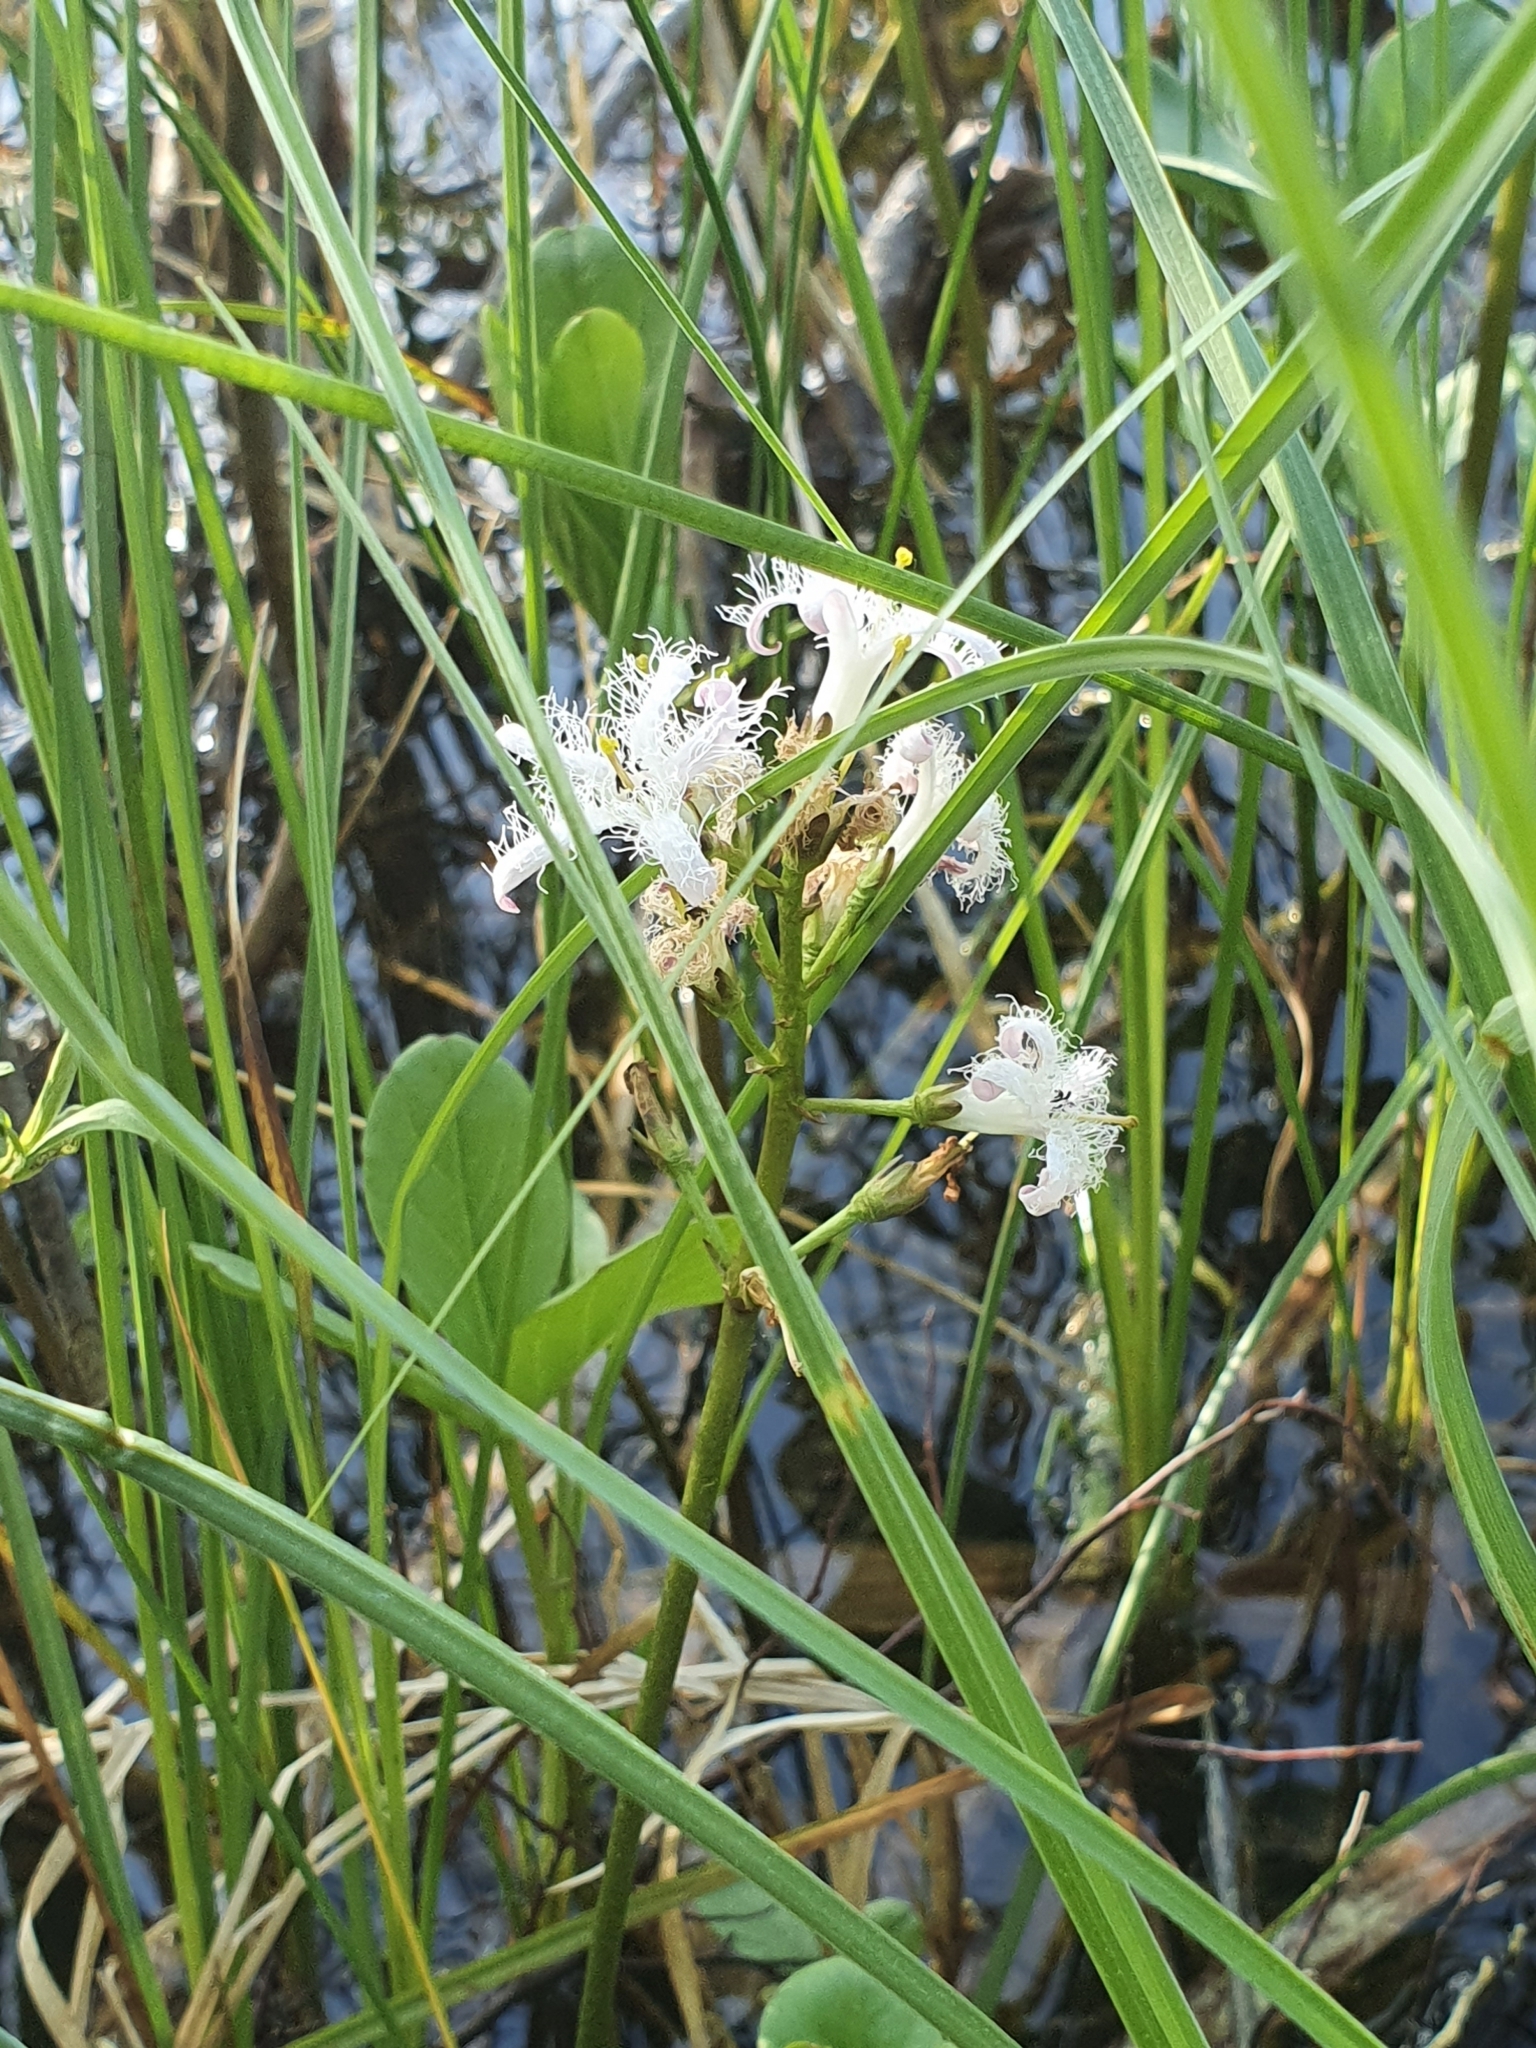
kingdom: Plantae
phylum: Tracheophyta
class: Magnoliopsida
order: Asterales
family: Menyanthaceae
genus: Menyanthes
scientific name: Menyanthes trifoliata
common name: Bogbean
